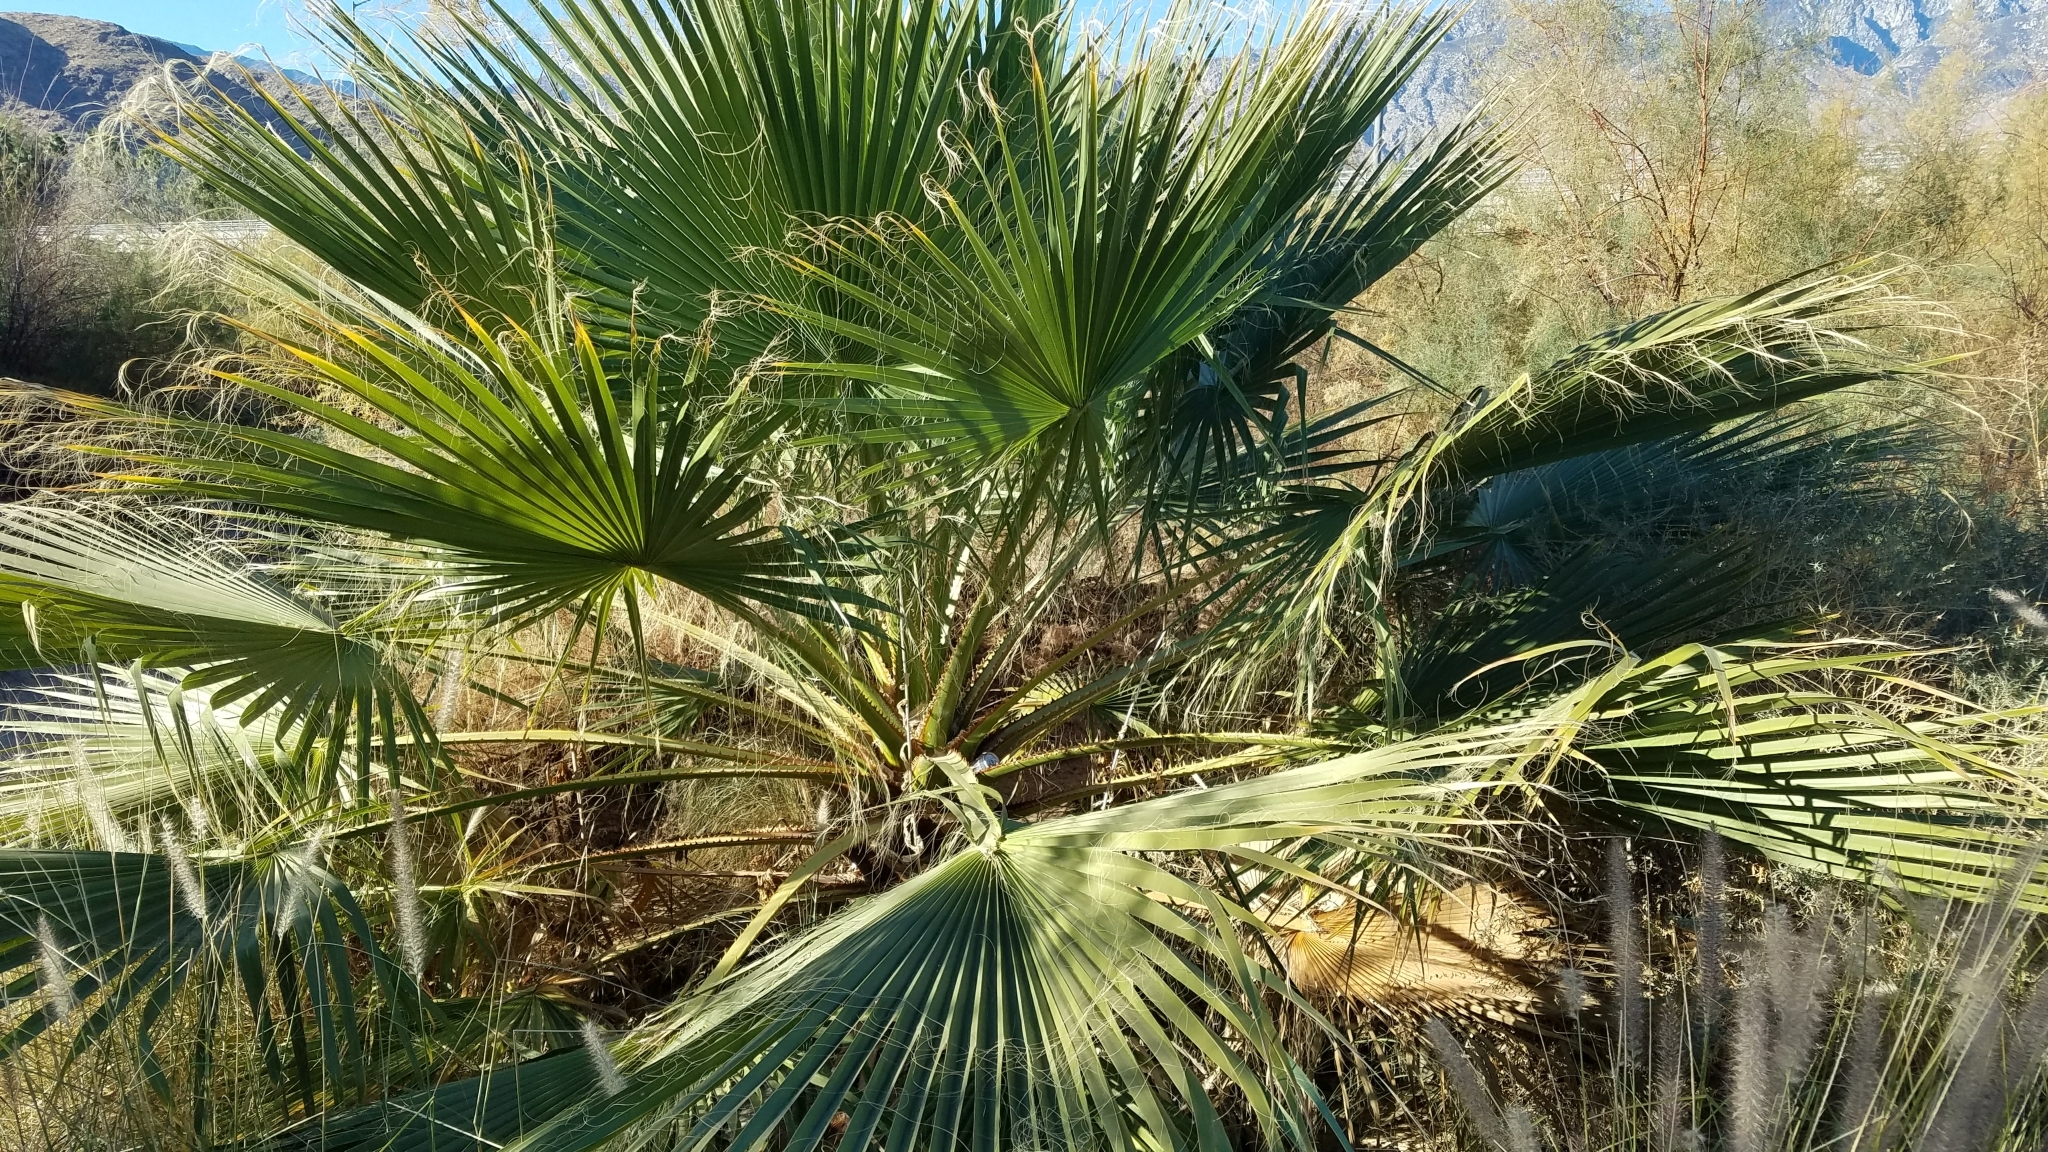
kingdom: Plantae
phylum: Tracheophyta
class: Liliopsida
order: Arecales
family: Arecaceae
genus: Washingtonia
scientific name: Washingtonia filifera
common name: California fan palm
